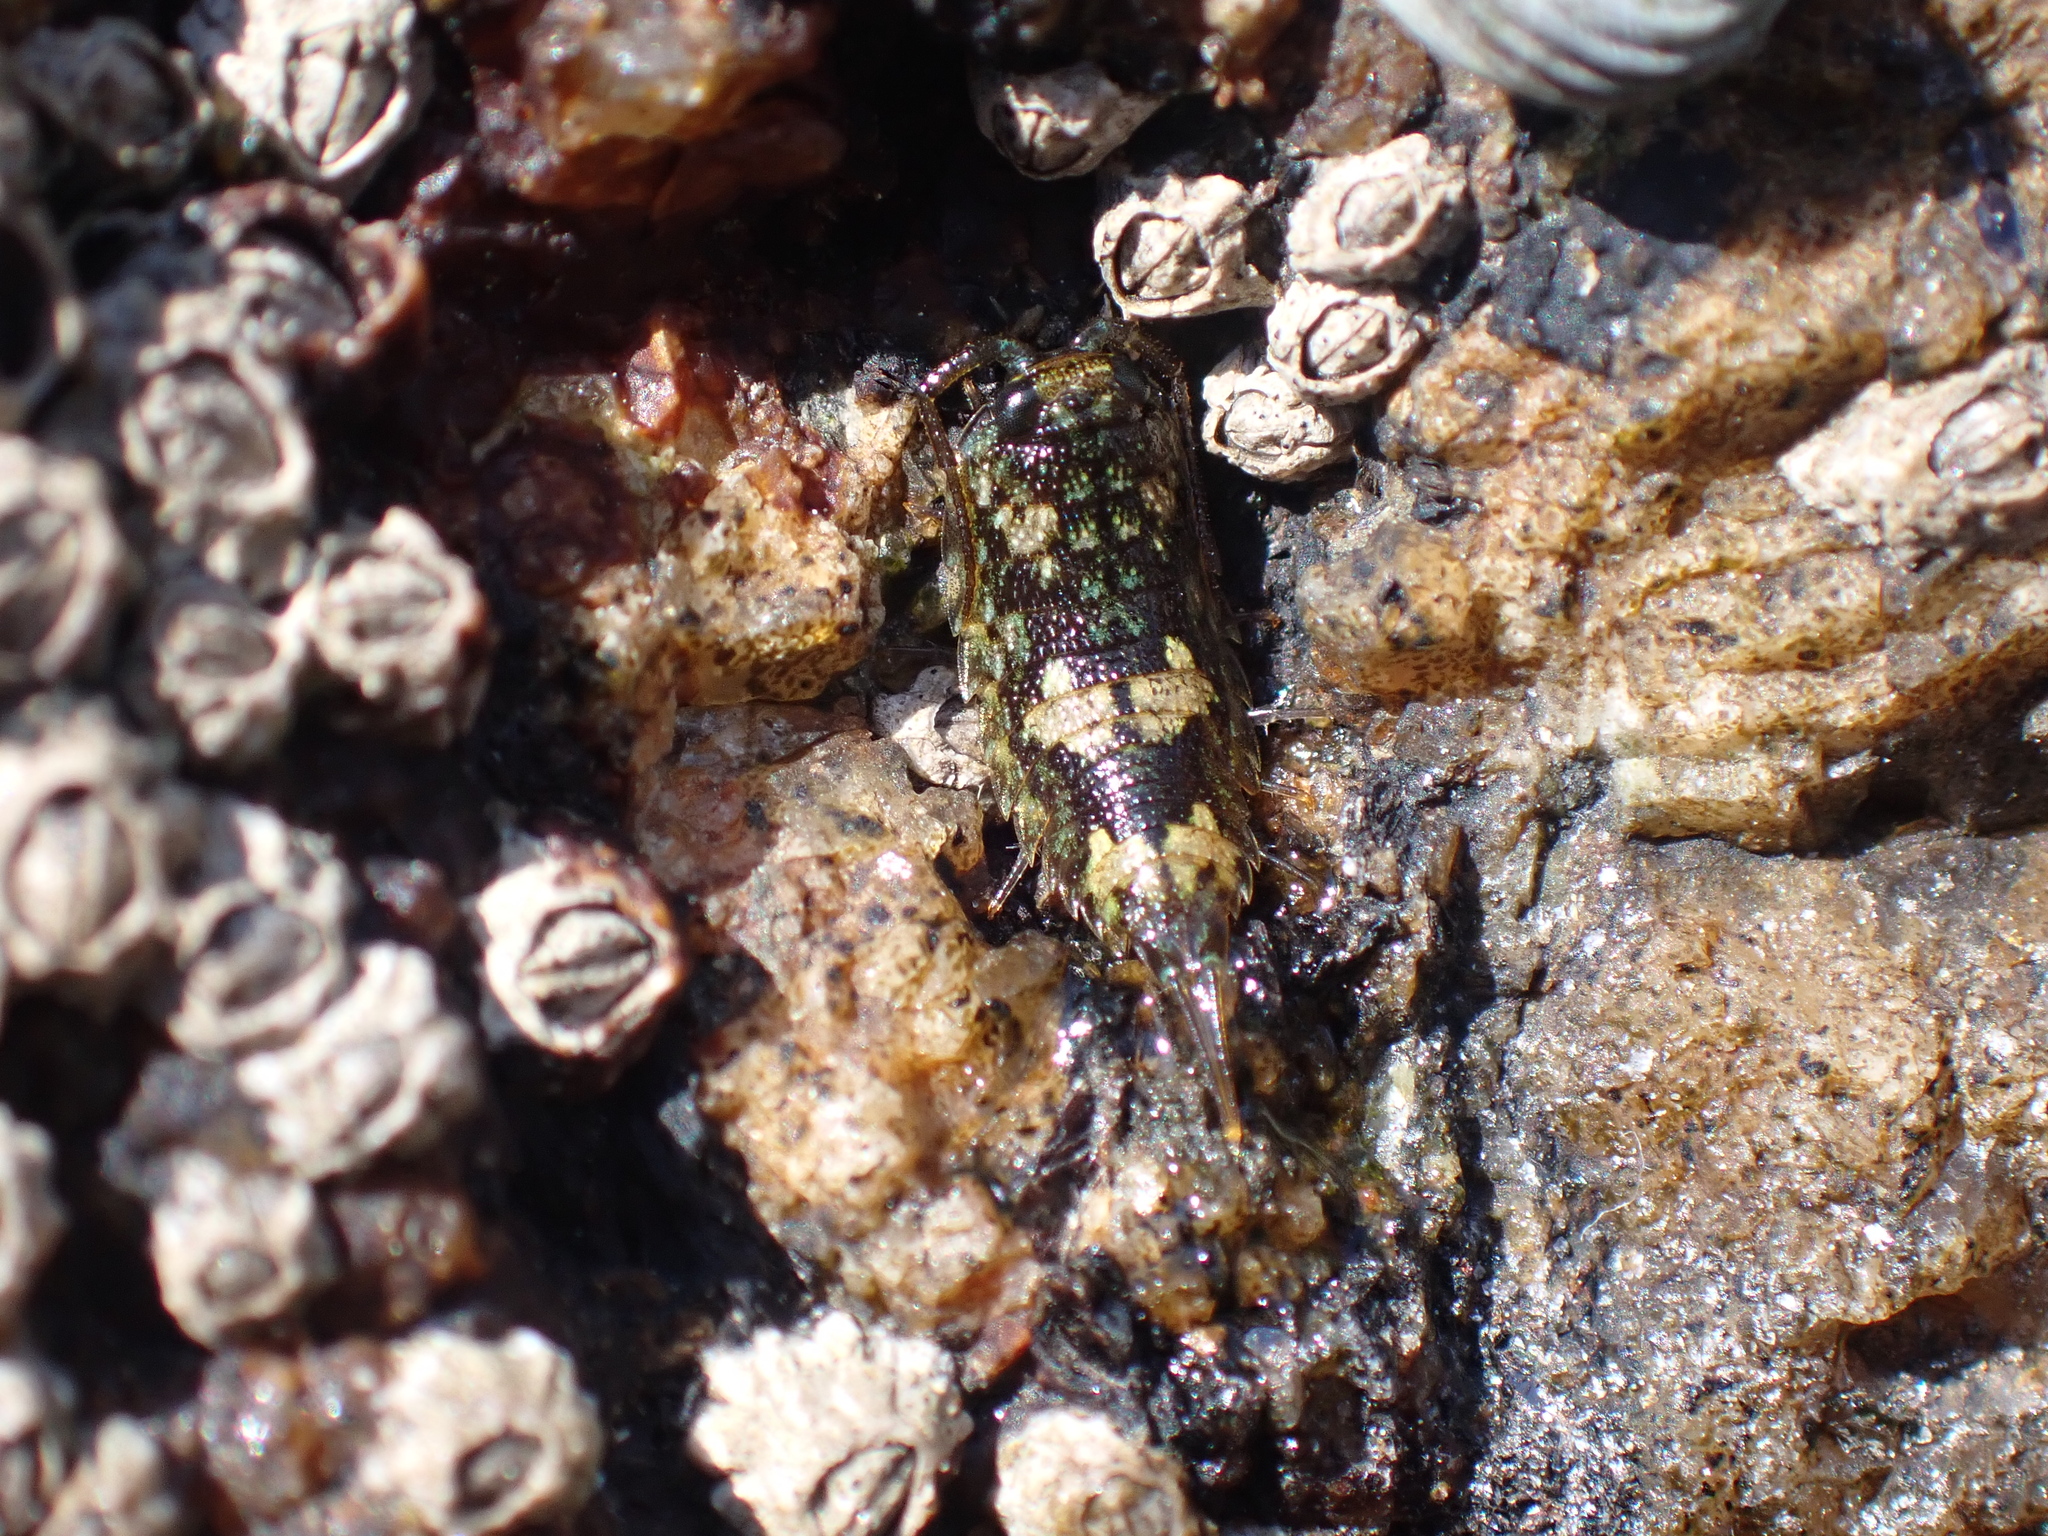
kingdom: Animalia
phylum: Arthropoda
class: Malacostraca
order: Isopoda
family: Ligiidae
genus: Ligia
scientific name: Ligia oceanica
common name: Sea slater
